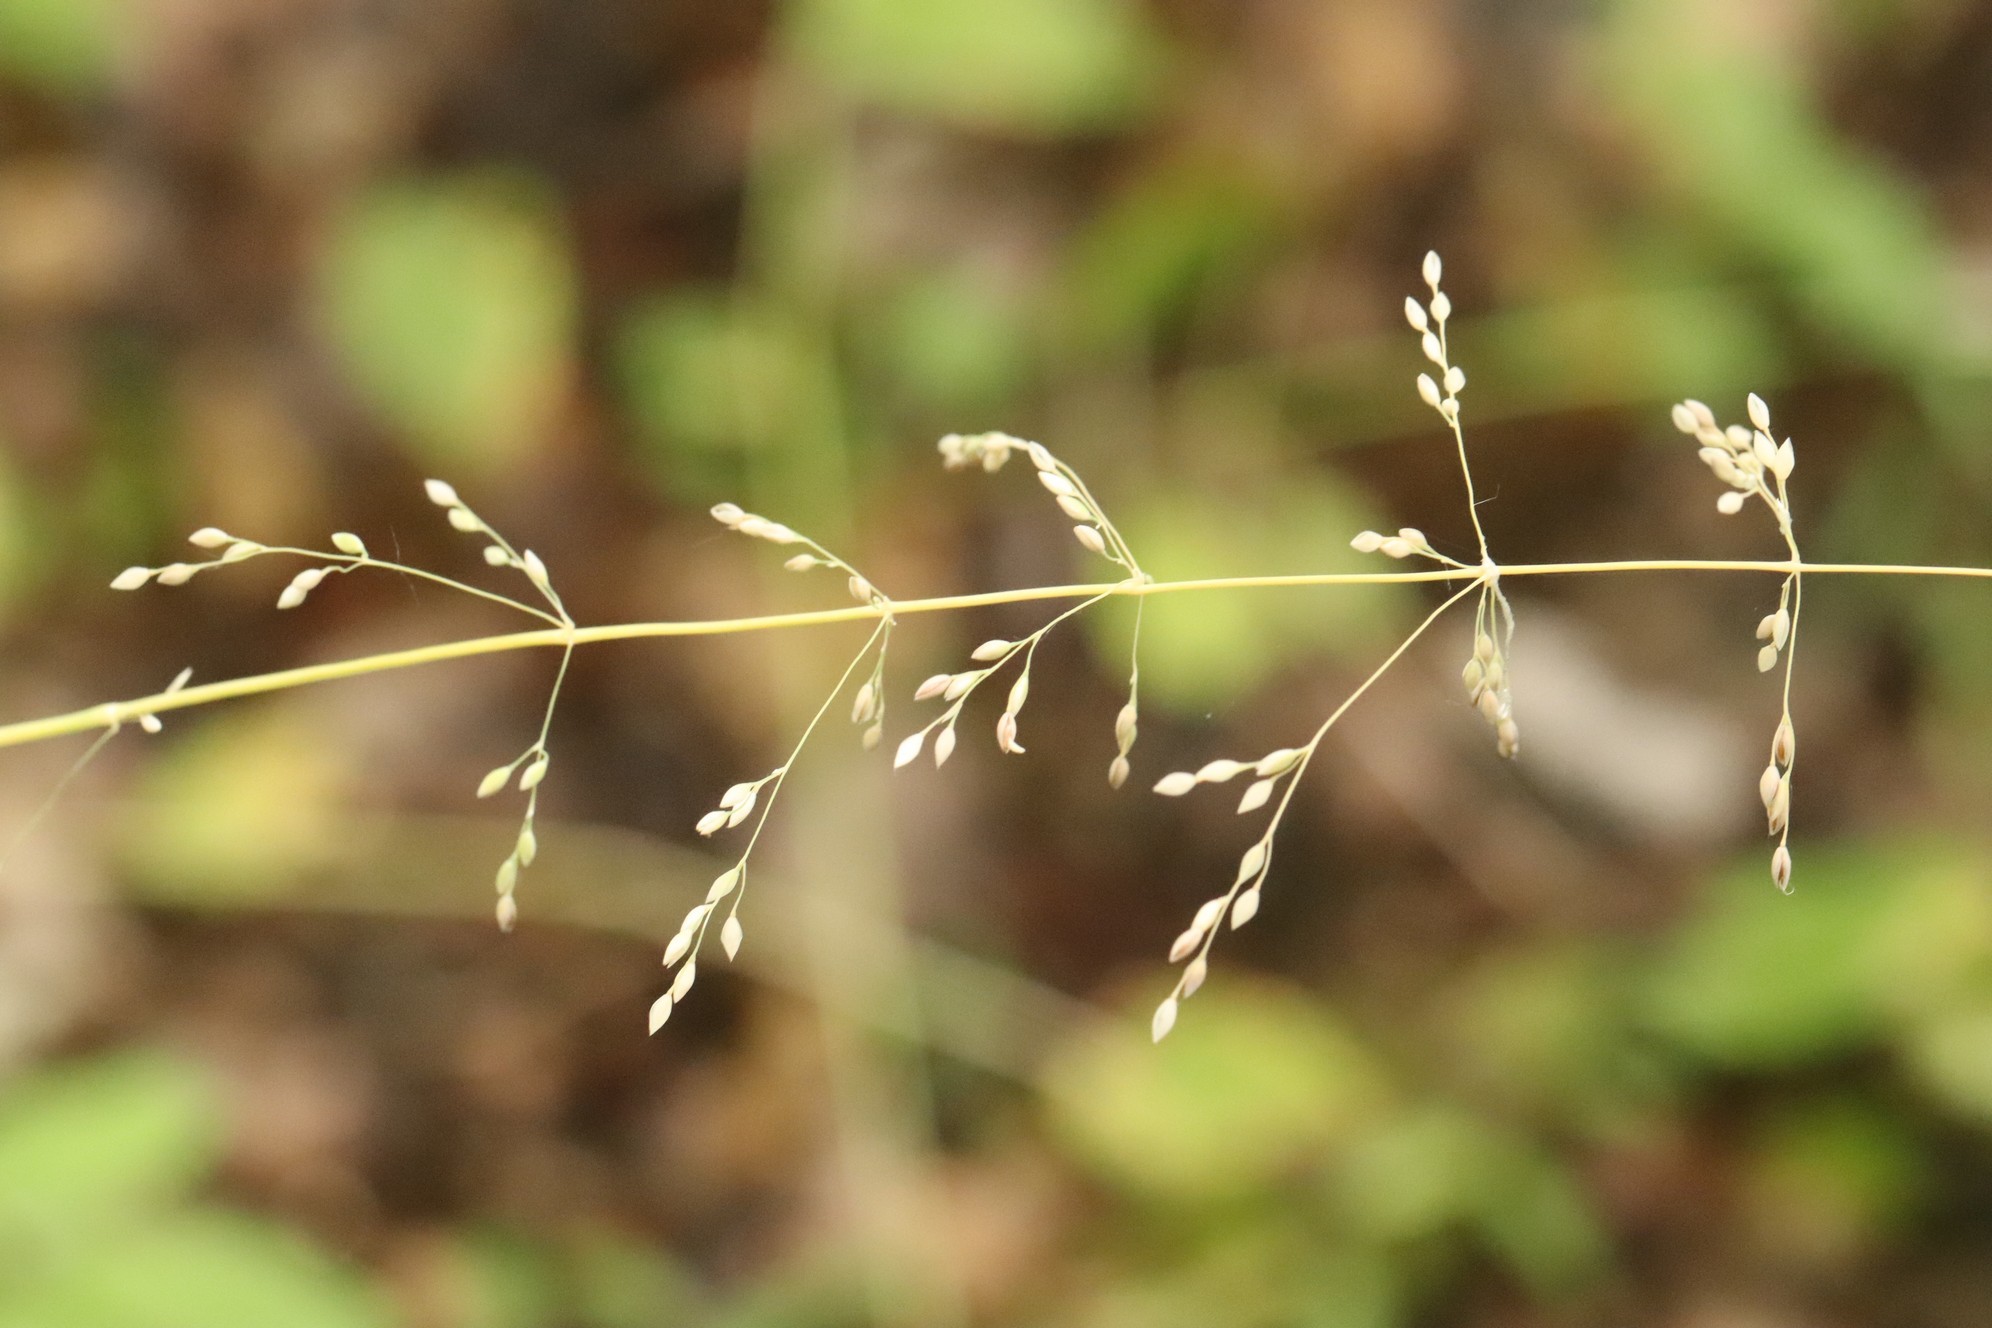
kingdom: Plantae
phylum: Tracheophyta
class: Liliopsida
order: Poales
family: Poaceae
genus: Milium
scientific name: Milium effusum
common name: Wood millet
